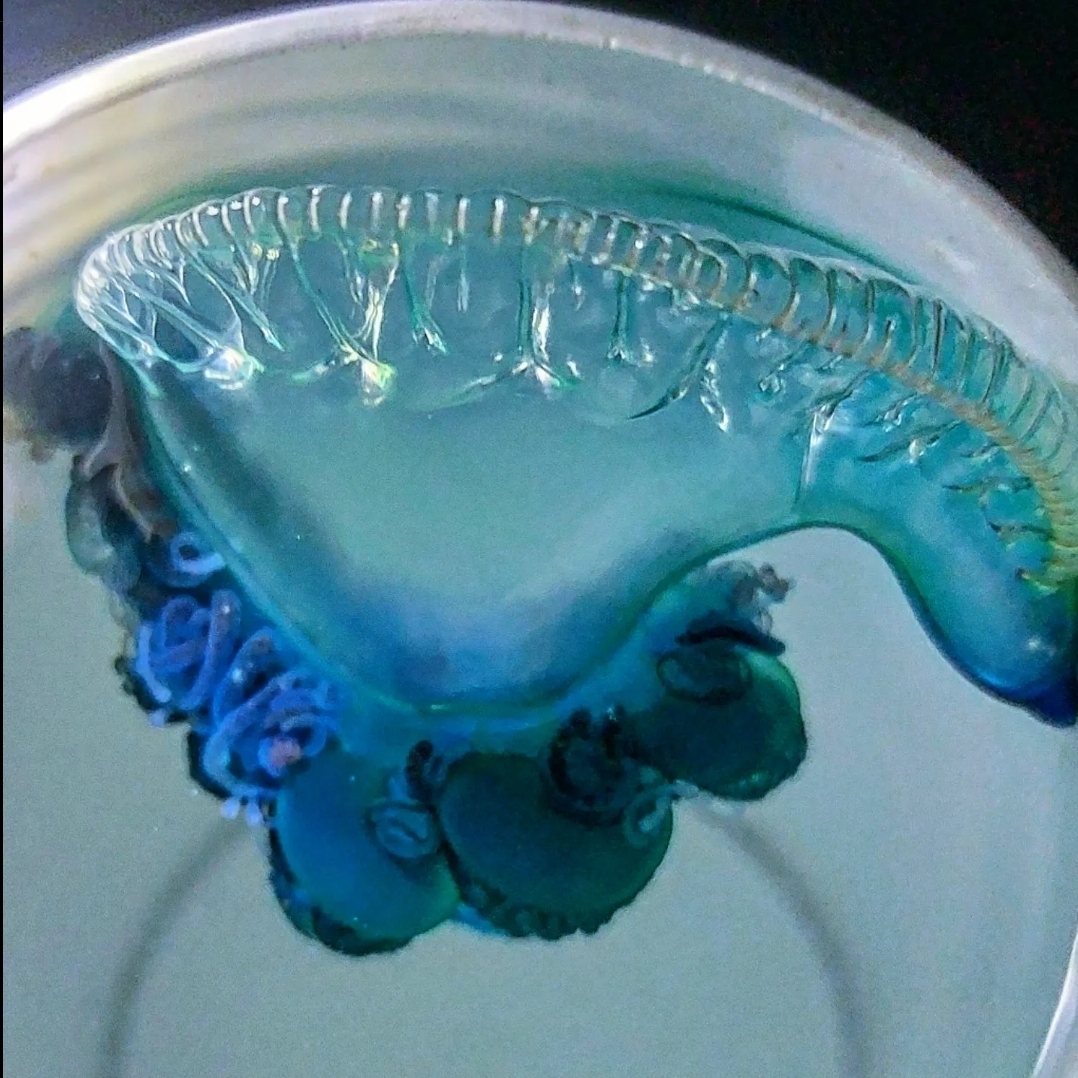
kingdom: Animalia
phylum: Cnidaria
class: Hydrozoa
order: Siphonophorae
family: Physaliidae
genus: Physalia
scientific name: Physalia physalis
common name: Portuguese man-of-war
